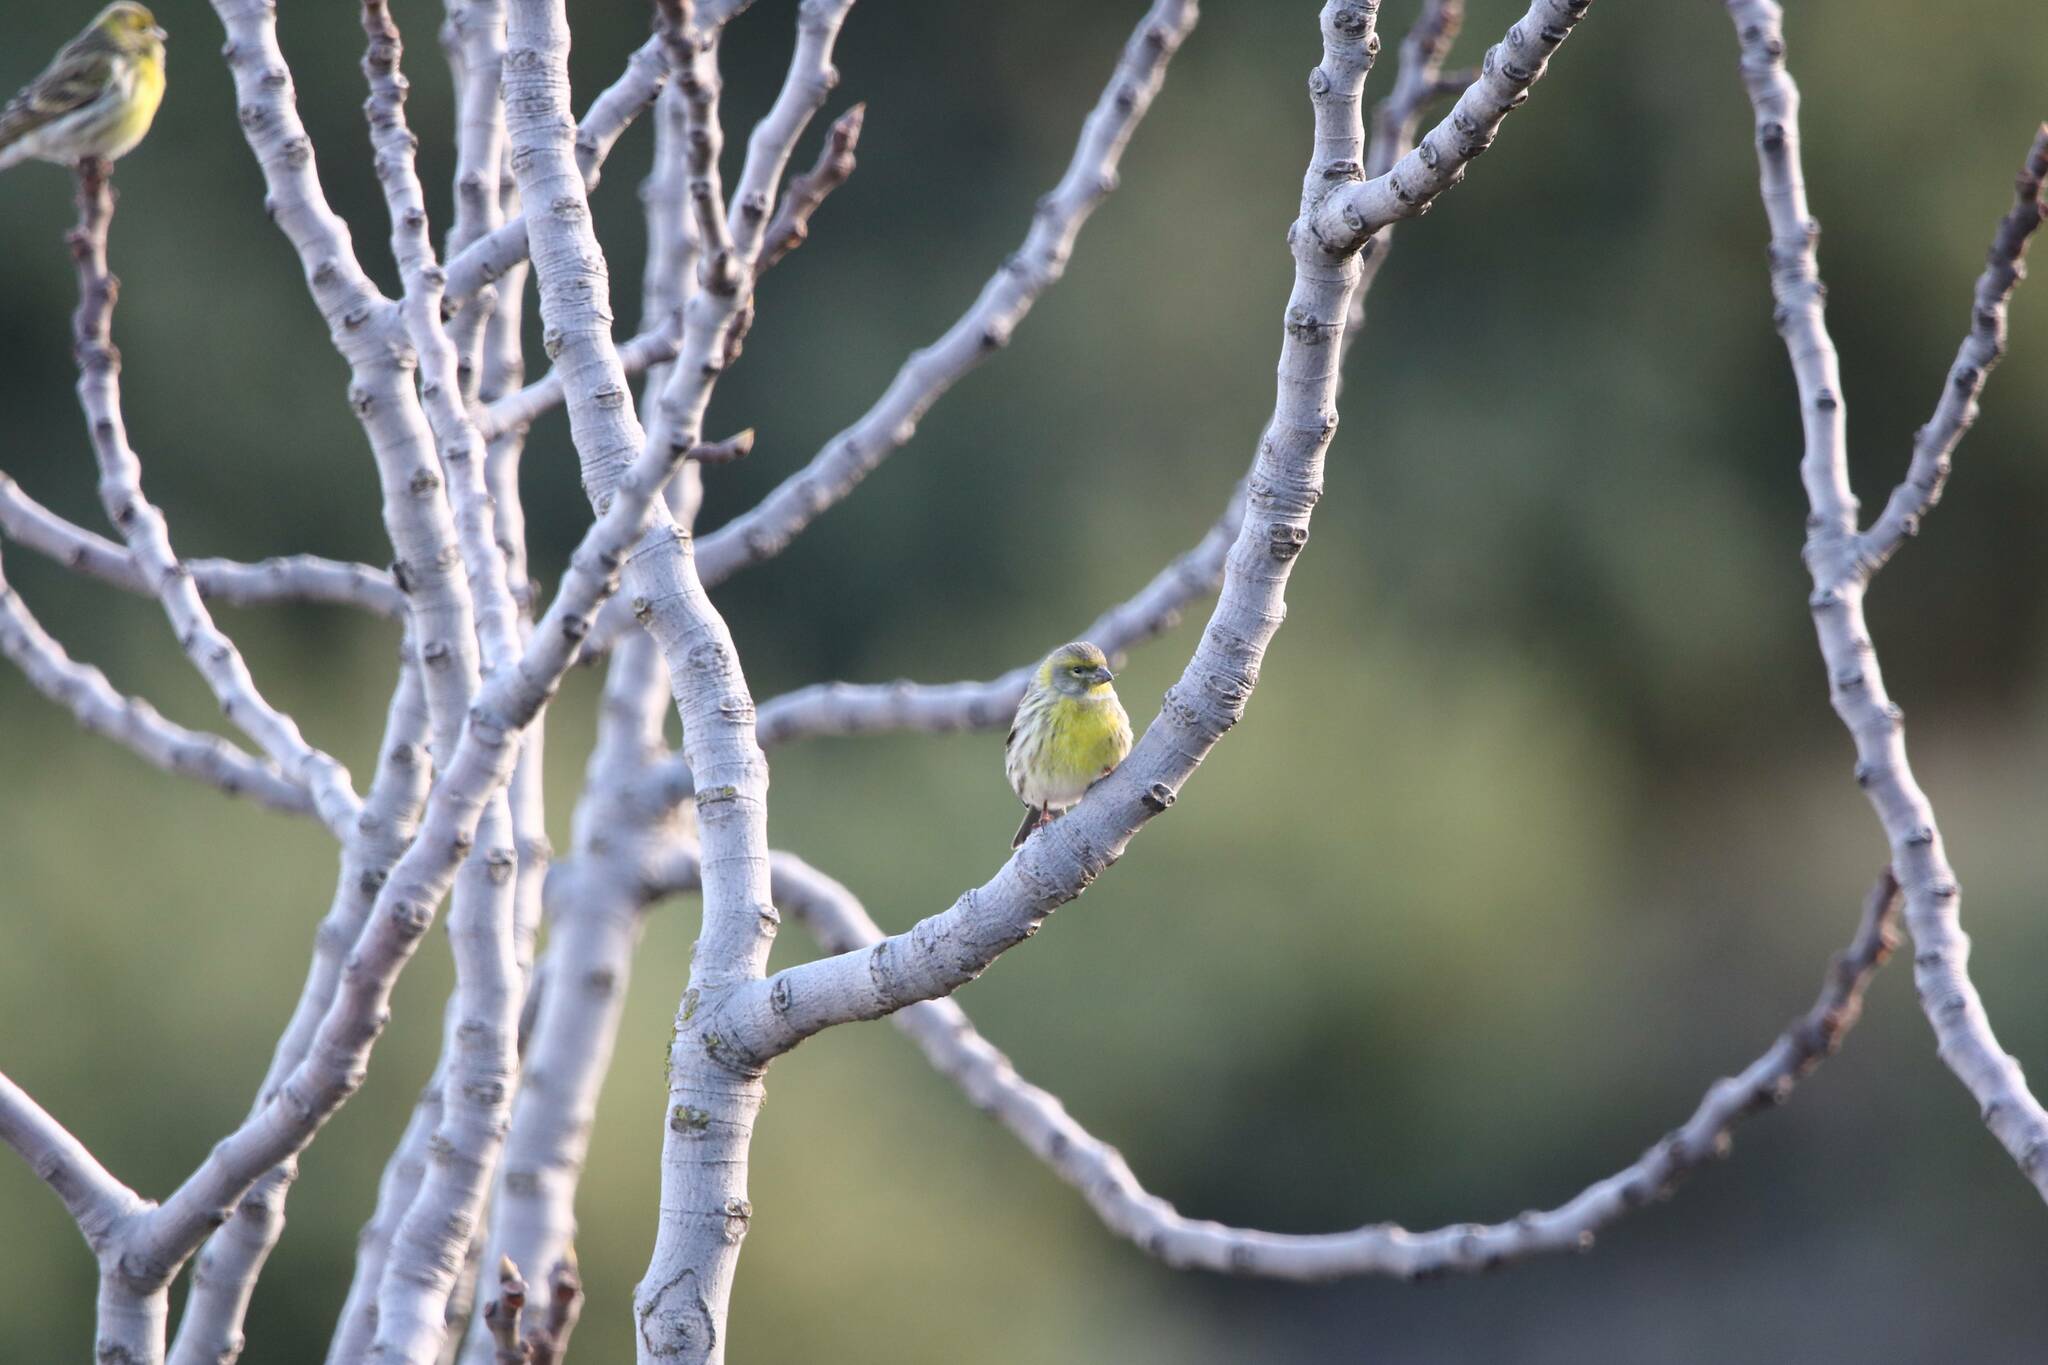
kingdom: Animalia
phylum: Chordata
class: Aves
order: Passeriformes
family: Fringillidae
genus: Serinus
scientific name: Serinus serinus
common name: European serin
